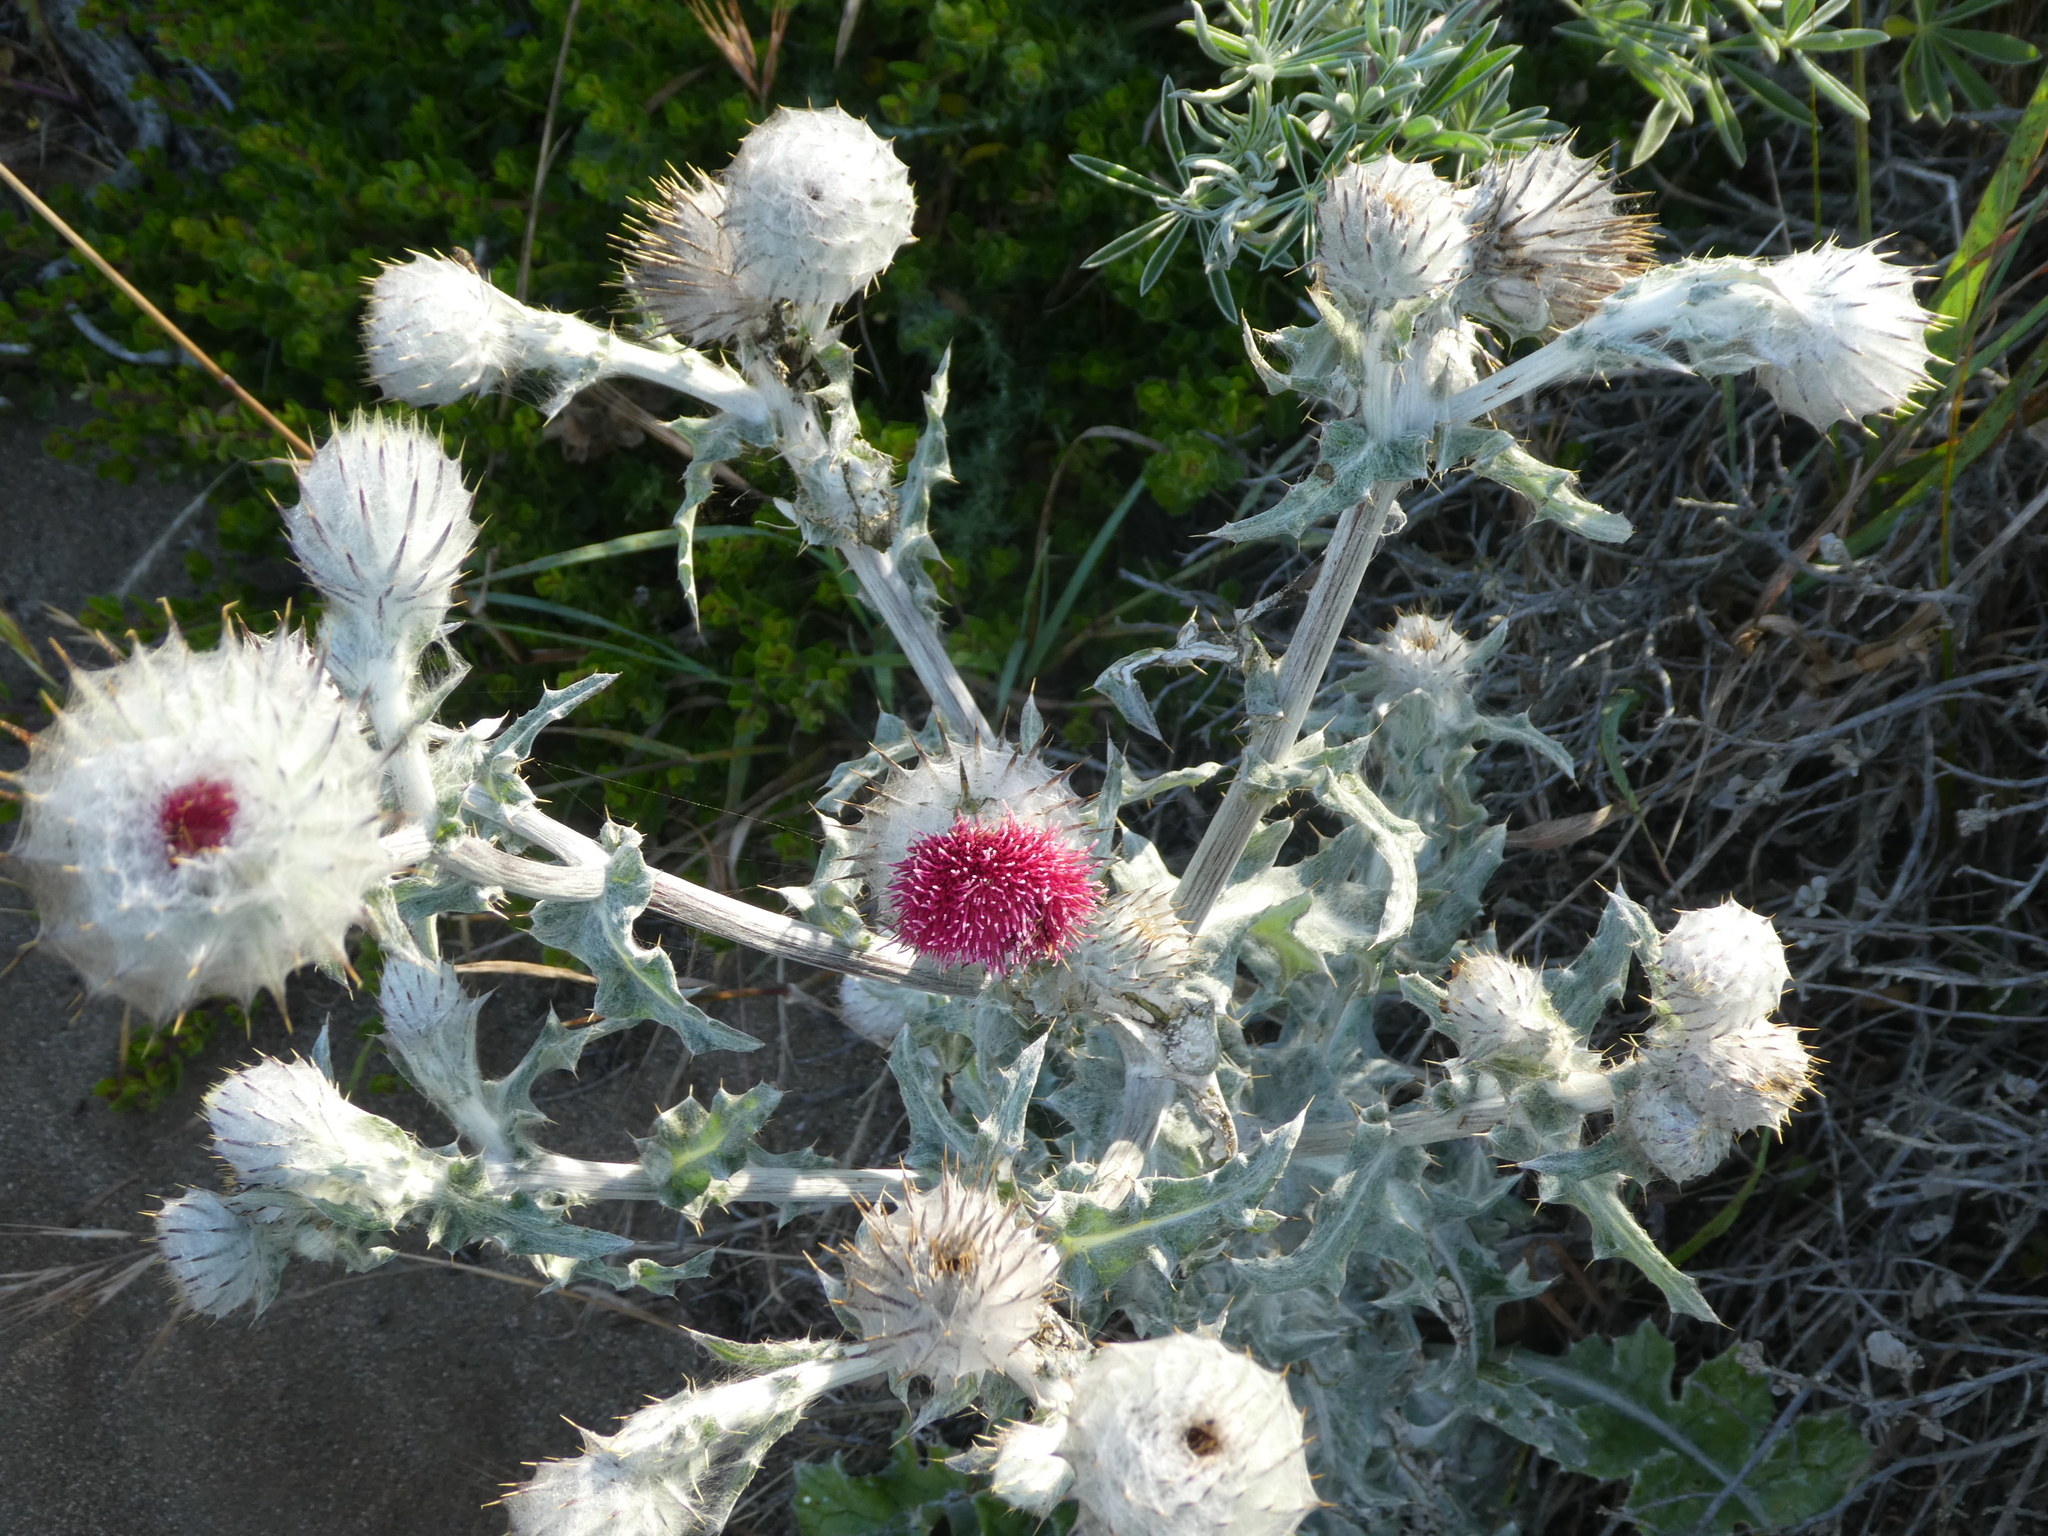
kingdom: Plantae
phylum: Tracheophyta
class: Magnoliopsida
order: Asterales
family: Asteraceae
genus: Cirsium
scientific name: Cirsium occidentale
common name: Western thistle
